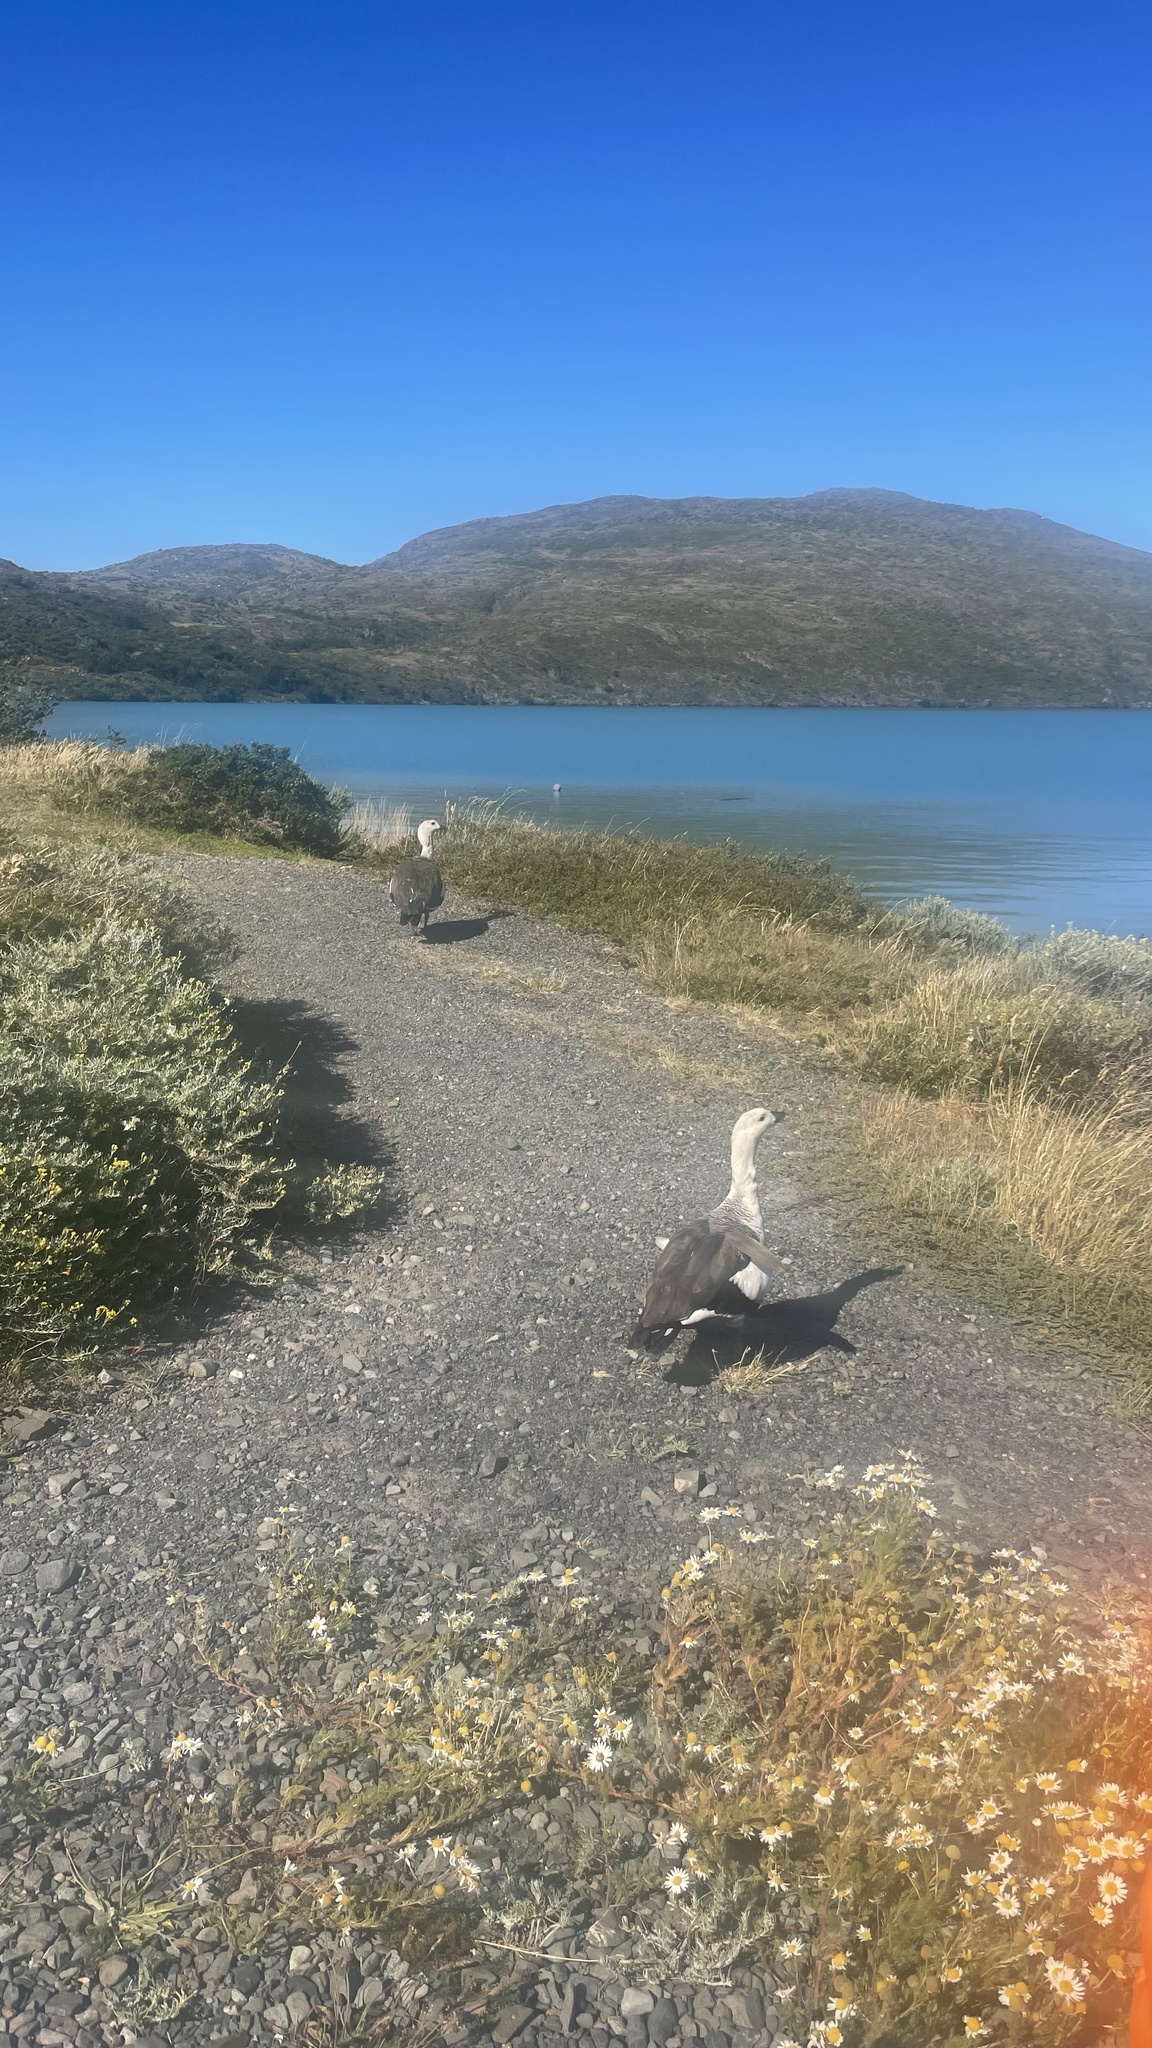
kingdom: Animalia
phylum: Chordata
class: Aves
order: Anseriformes
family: Anatidae
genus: Chloephaga
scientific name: Chloephaga picta
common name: Upland goose
